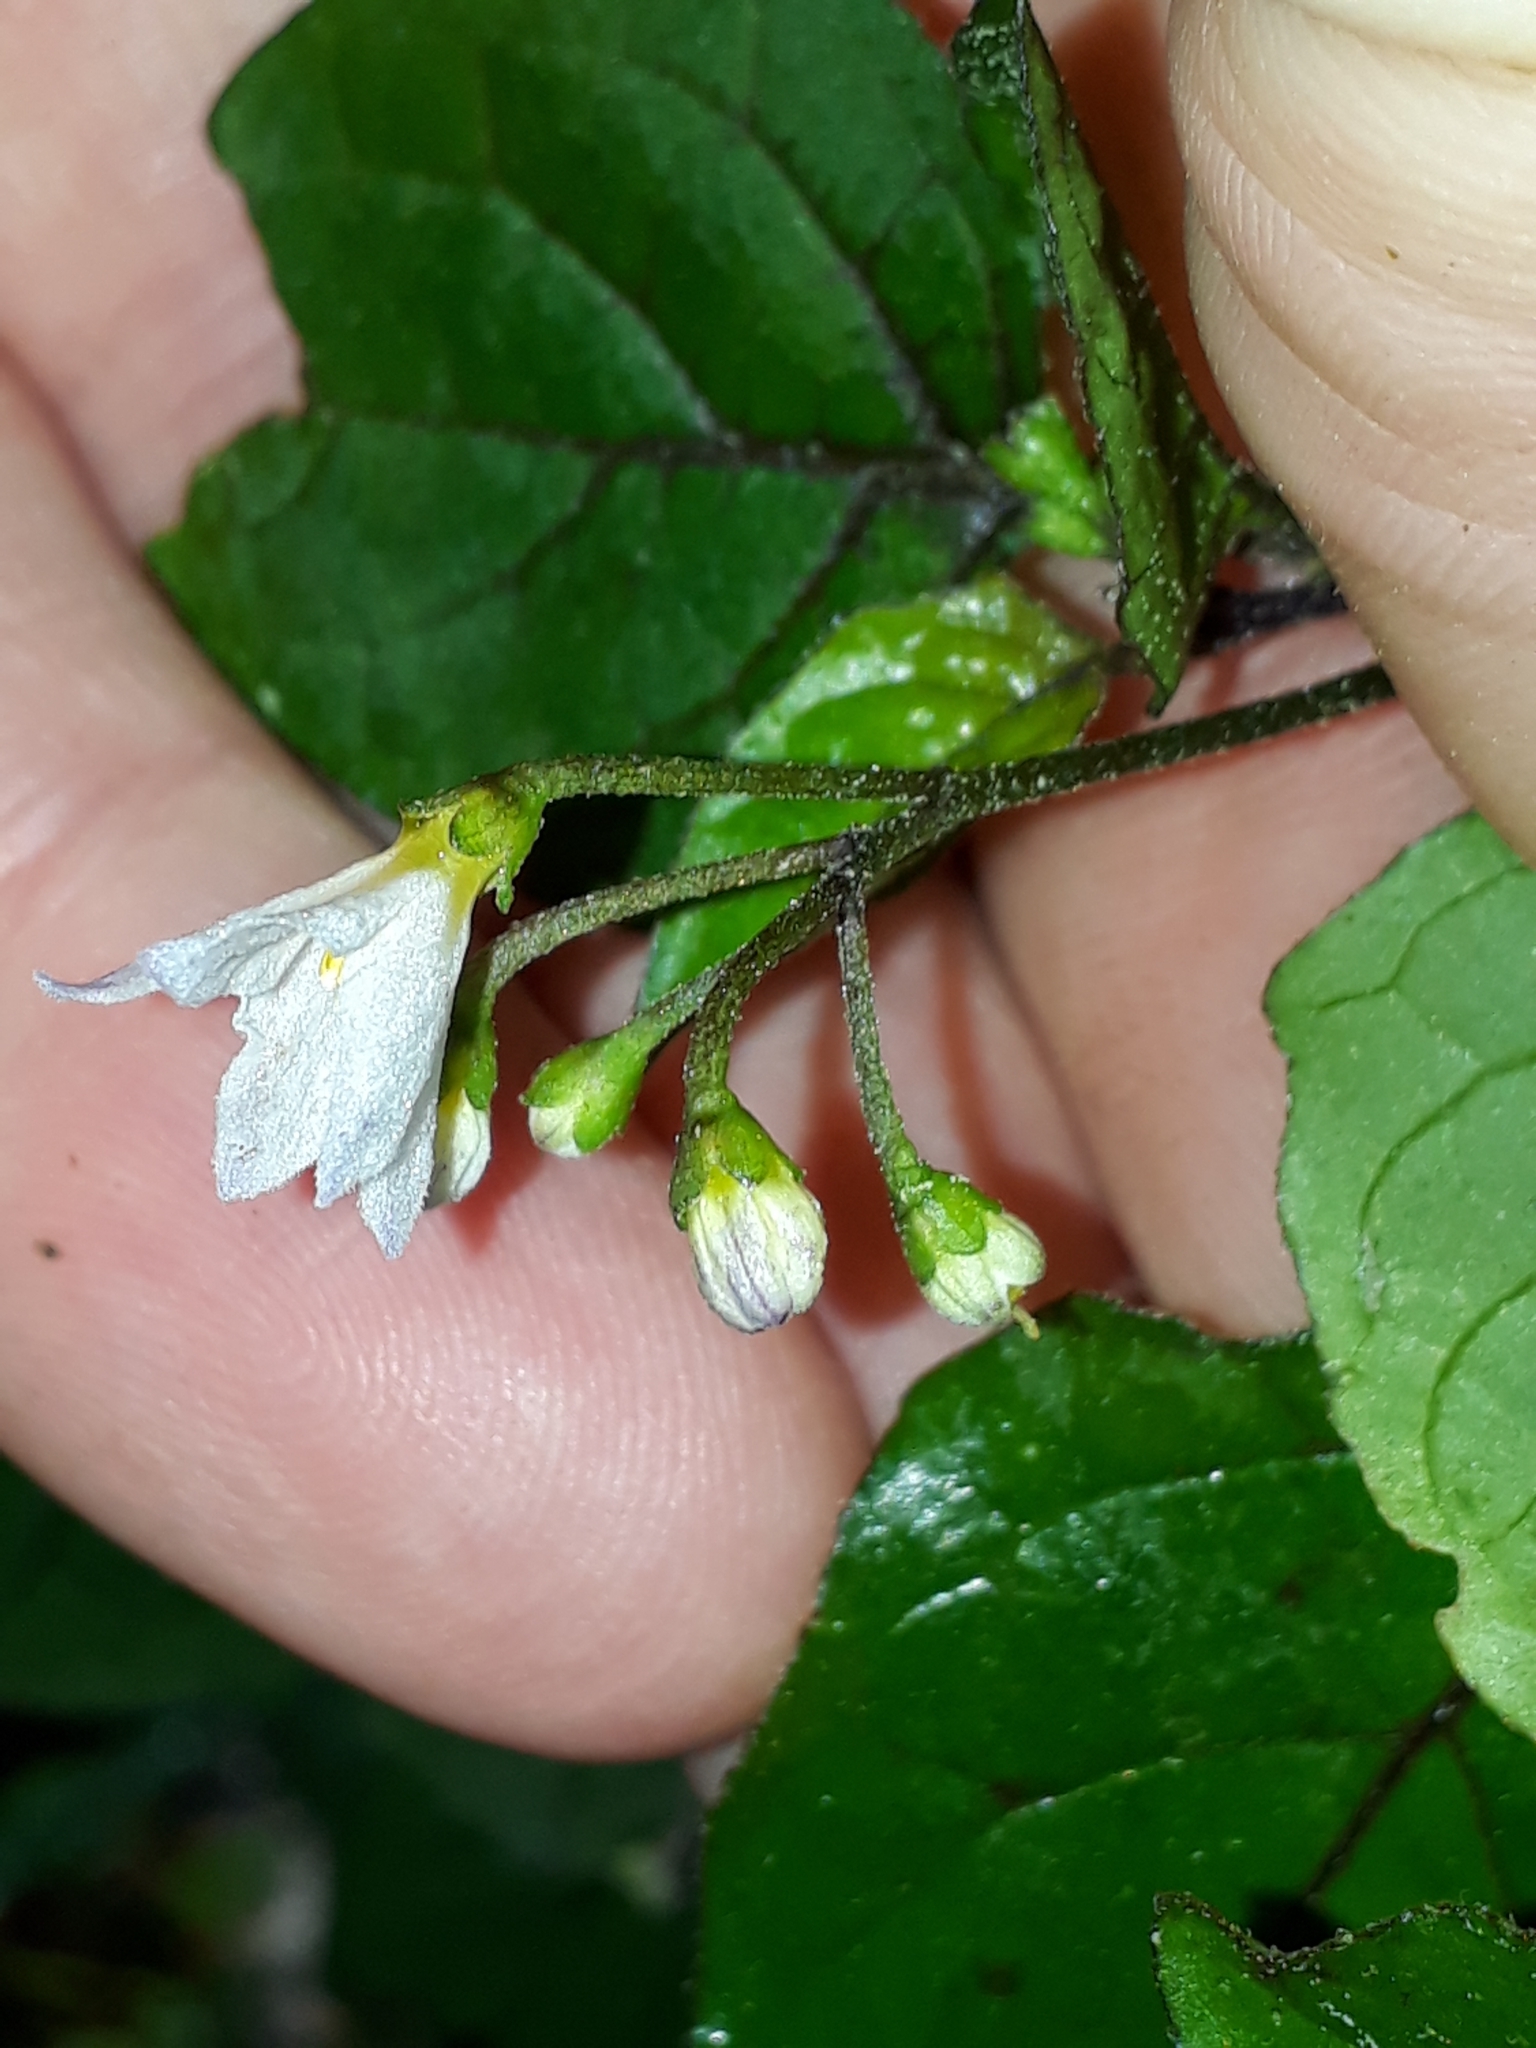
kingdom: Plantae
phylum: Tracheophyta
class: Magnoliopsida
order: Solanales
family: Solanaceae
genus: Solanum
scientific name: Solanum nigrum
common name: Black nightshade
